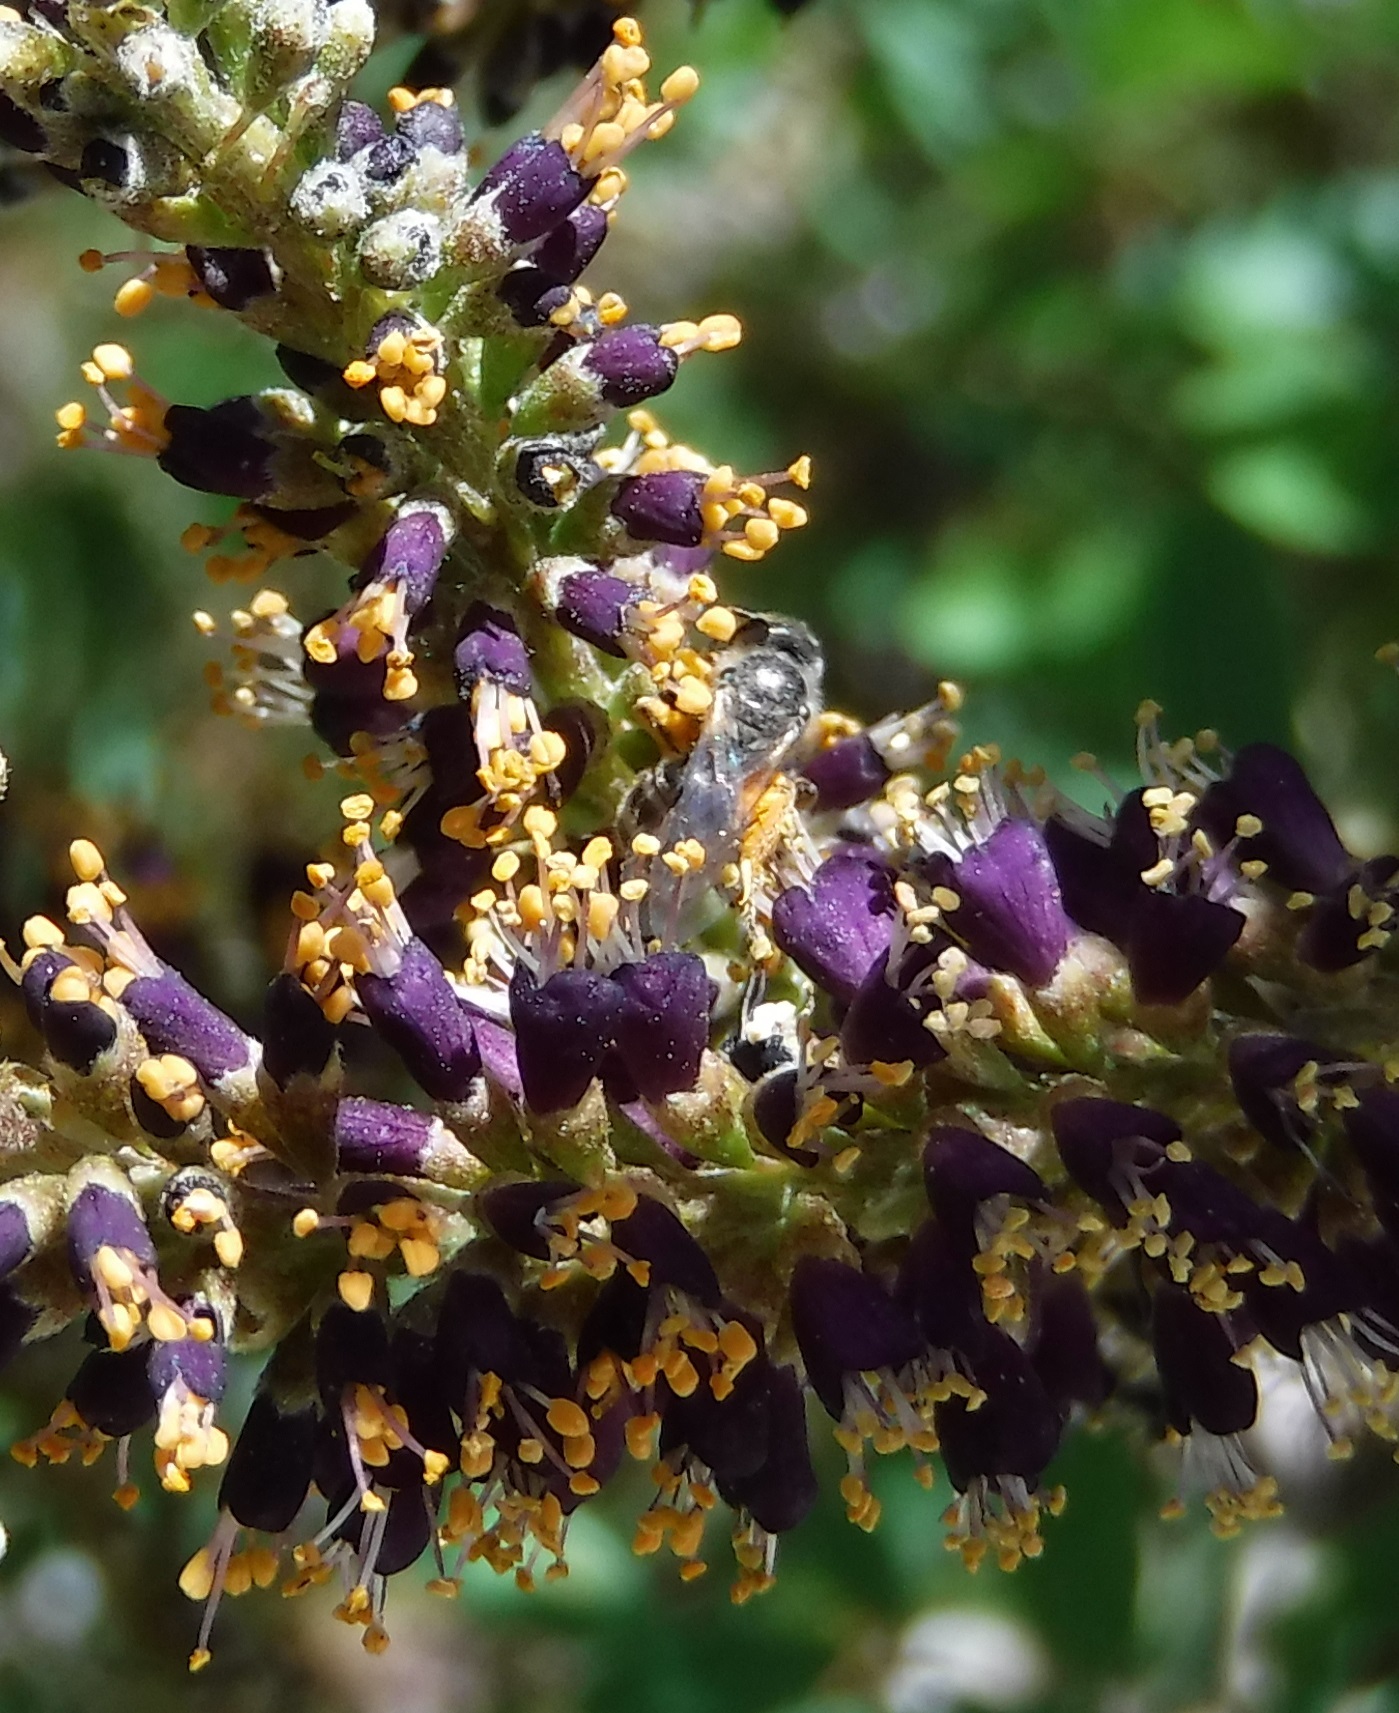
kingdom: Animalia
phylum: Arthropoda
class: Insecta
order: Hymenoptera
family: Halictidae
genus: Lasioglossum
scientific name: Lasioglossum
